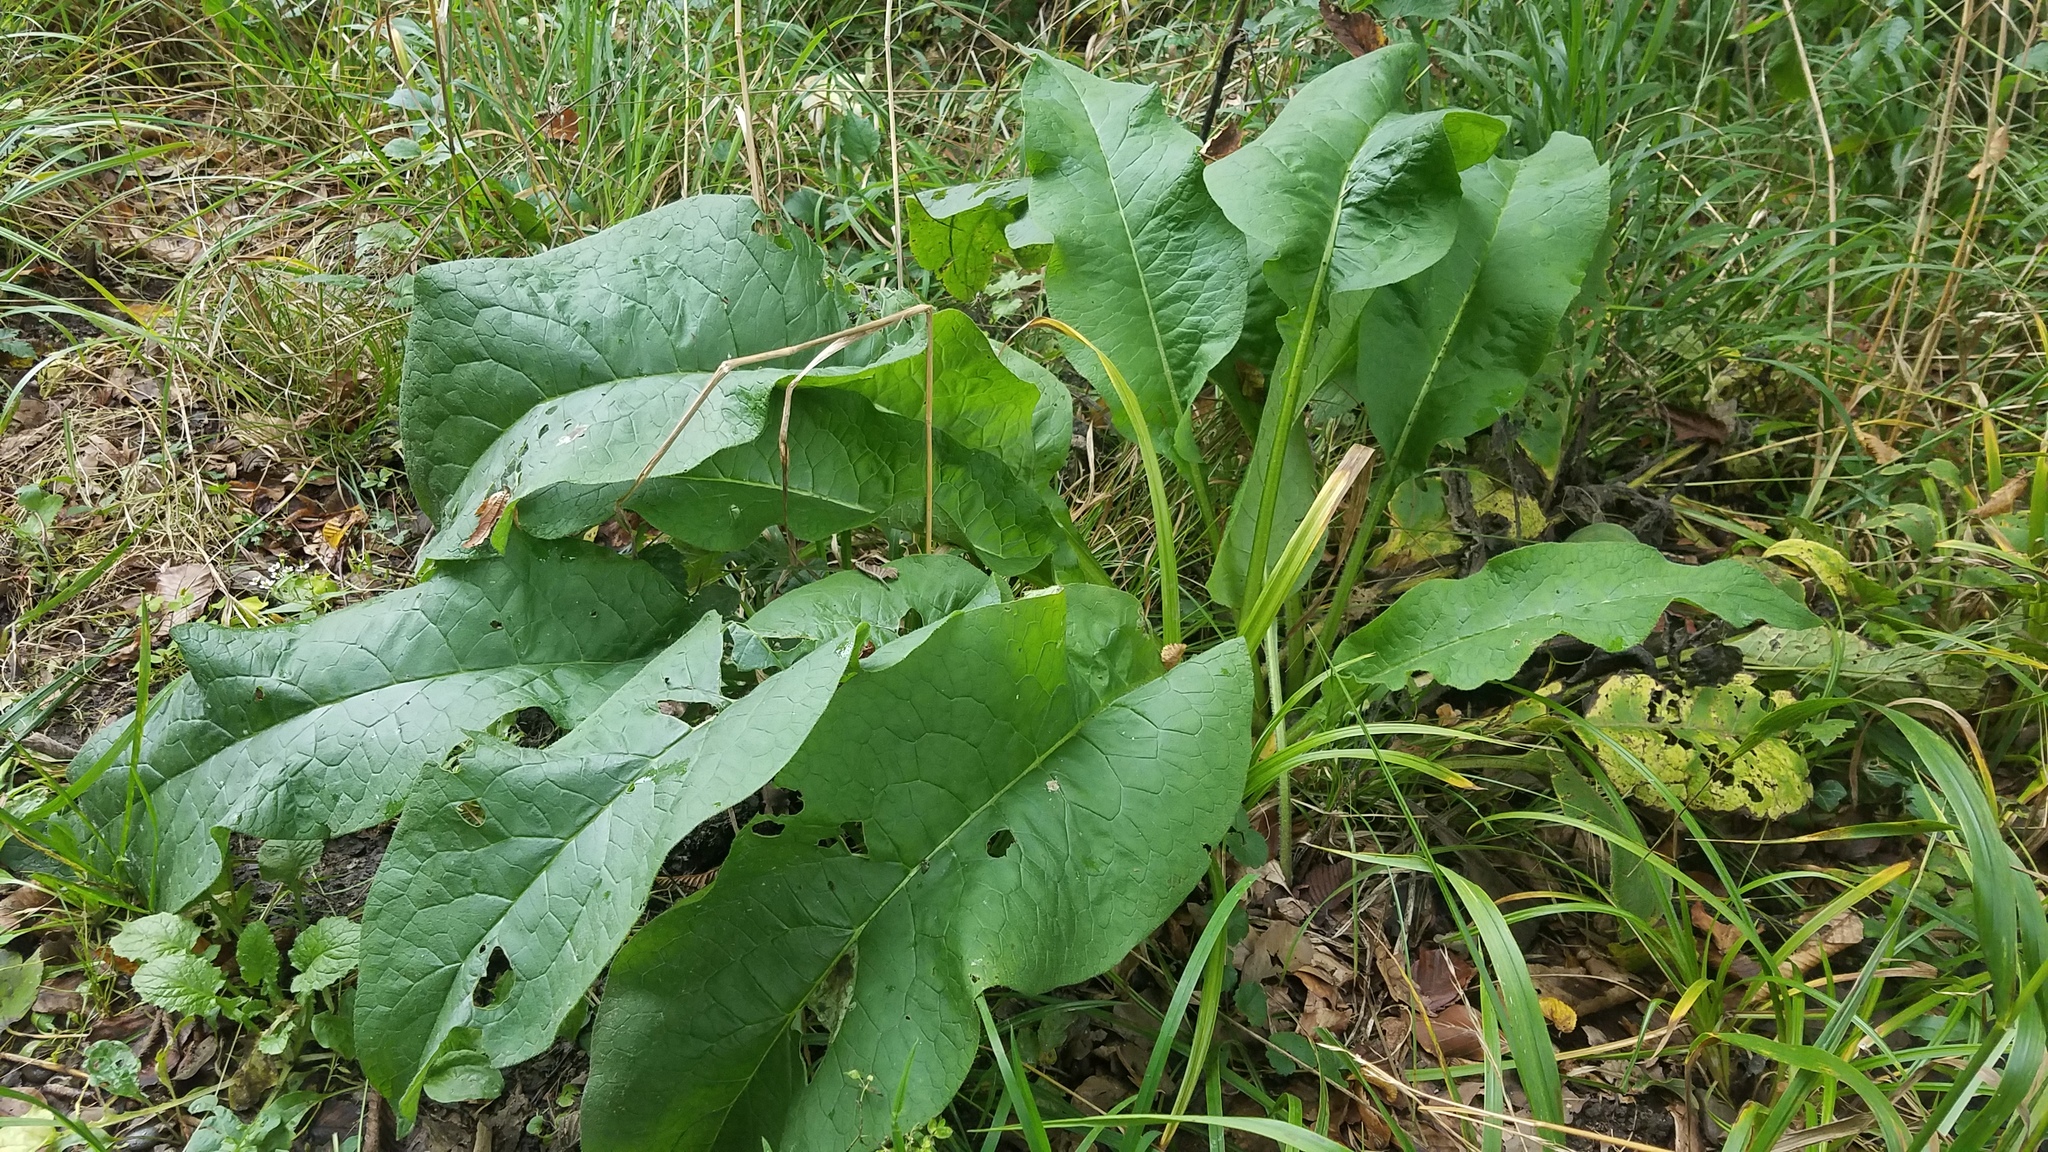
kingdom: Plantae
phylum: Tracheophyta
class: Magnoliopsida
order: Caryophyllales
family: Polygonaceae
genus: Rumex
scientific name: Rumex obtusifolius
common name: Bitter dock
